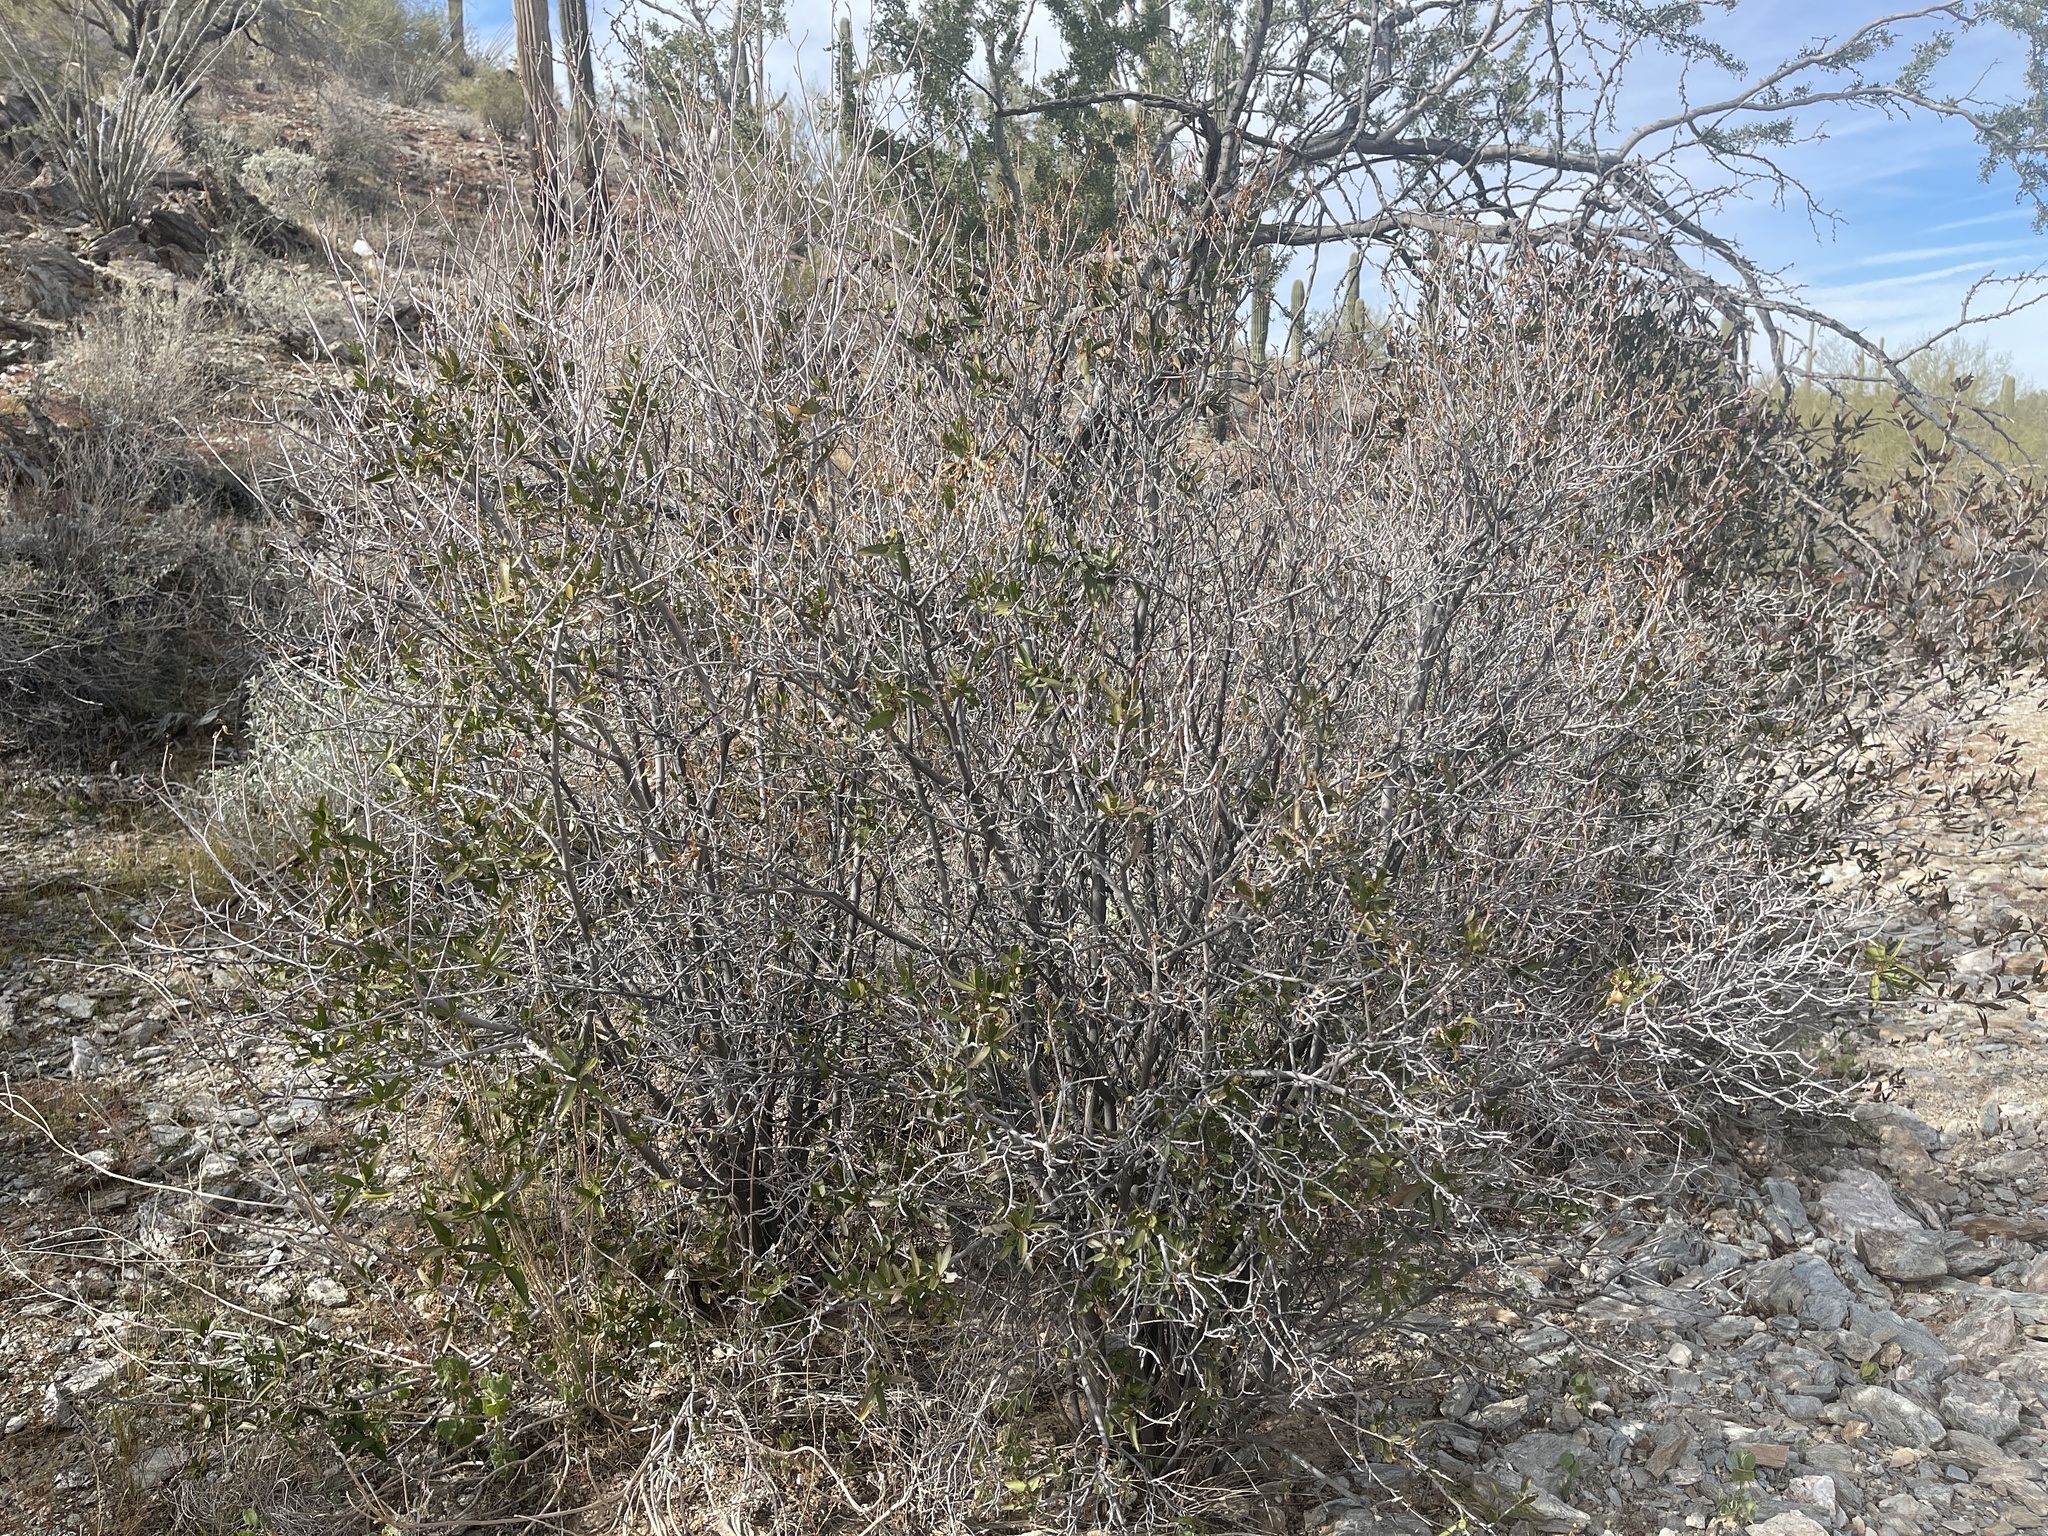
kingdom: Plantae
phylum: Tracheophyta
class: Magnoliopsida
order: Malpighiales
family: Euphorbiaceae
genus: Pleradenophora
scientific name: Pleradenophora bilocularis
